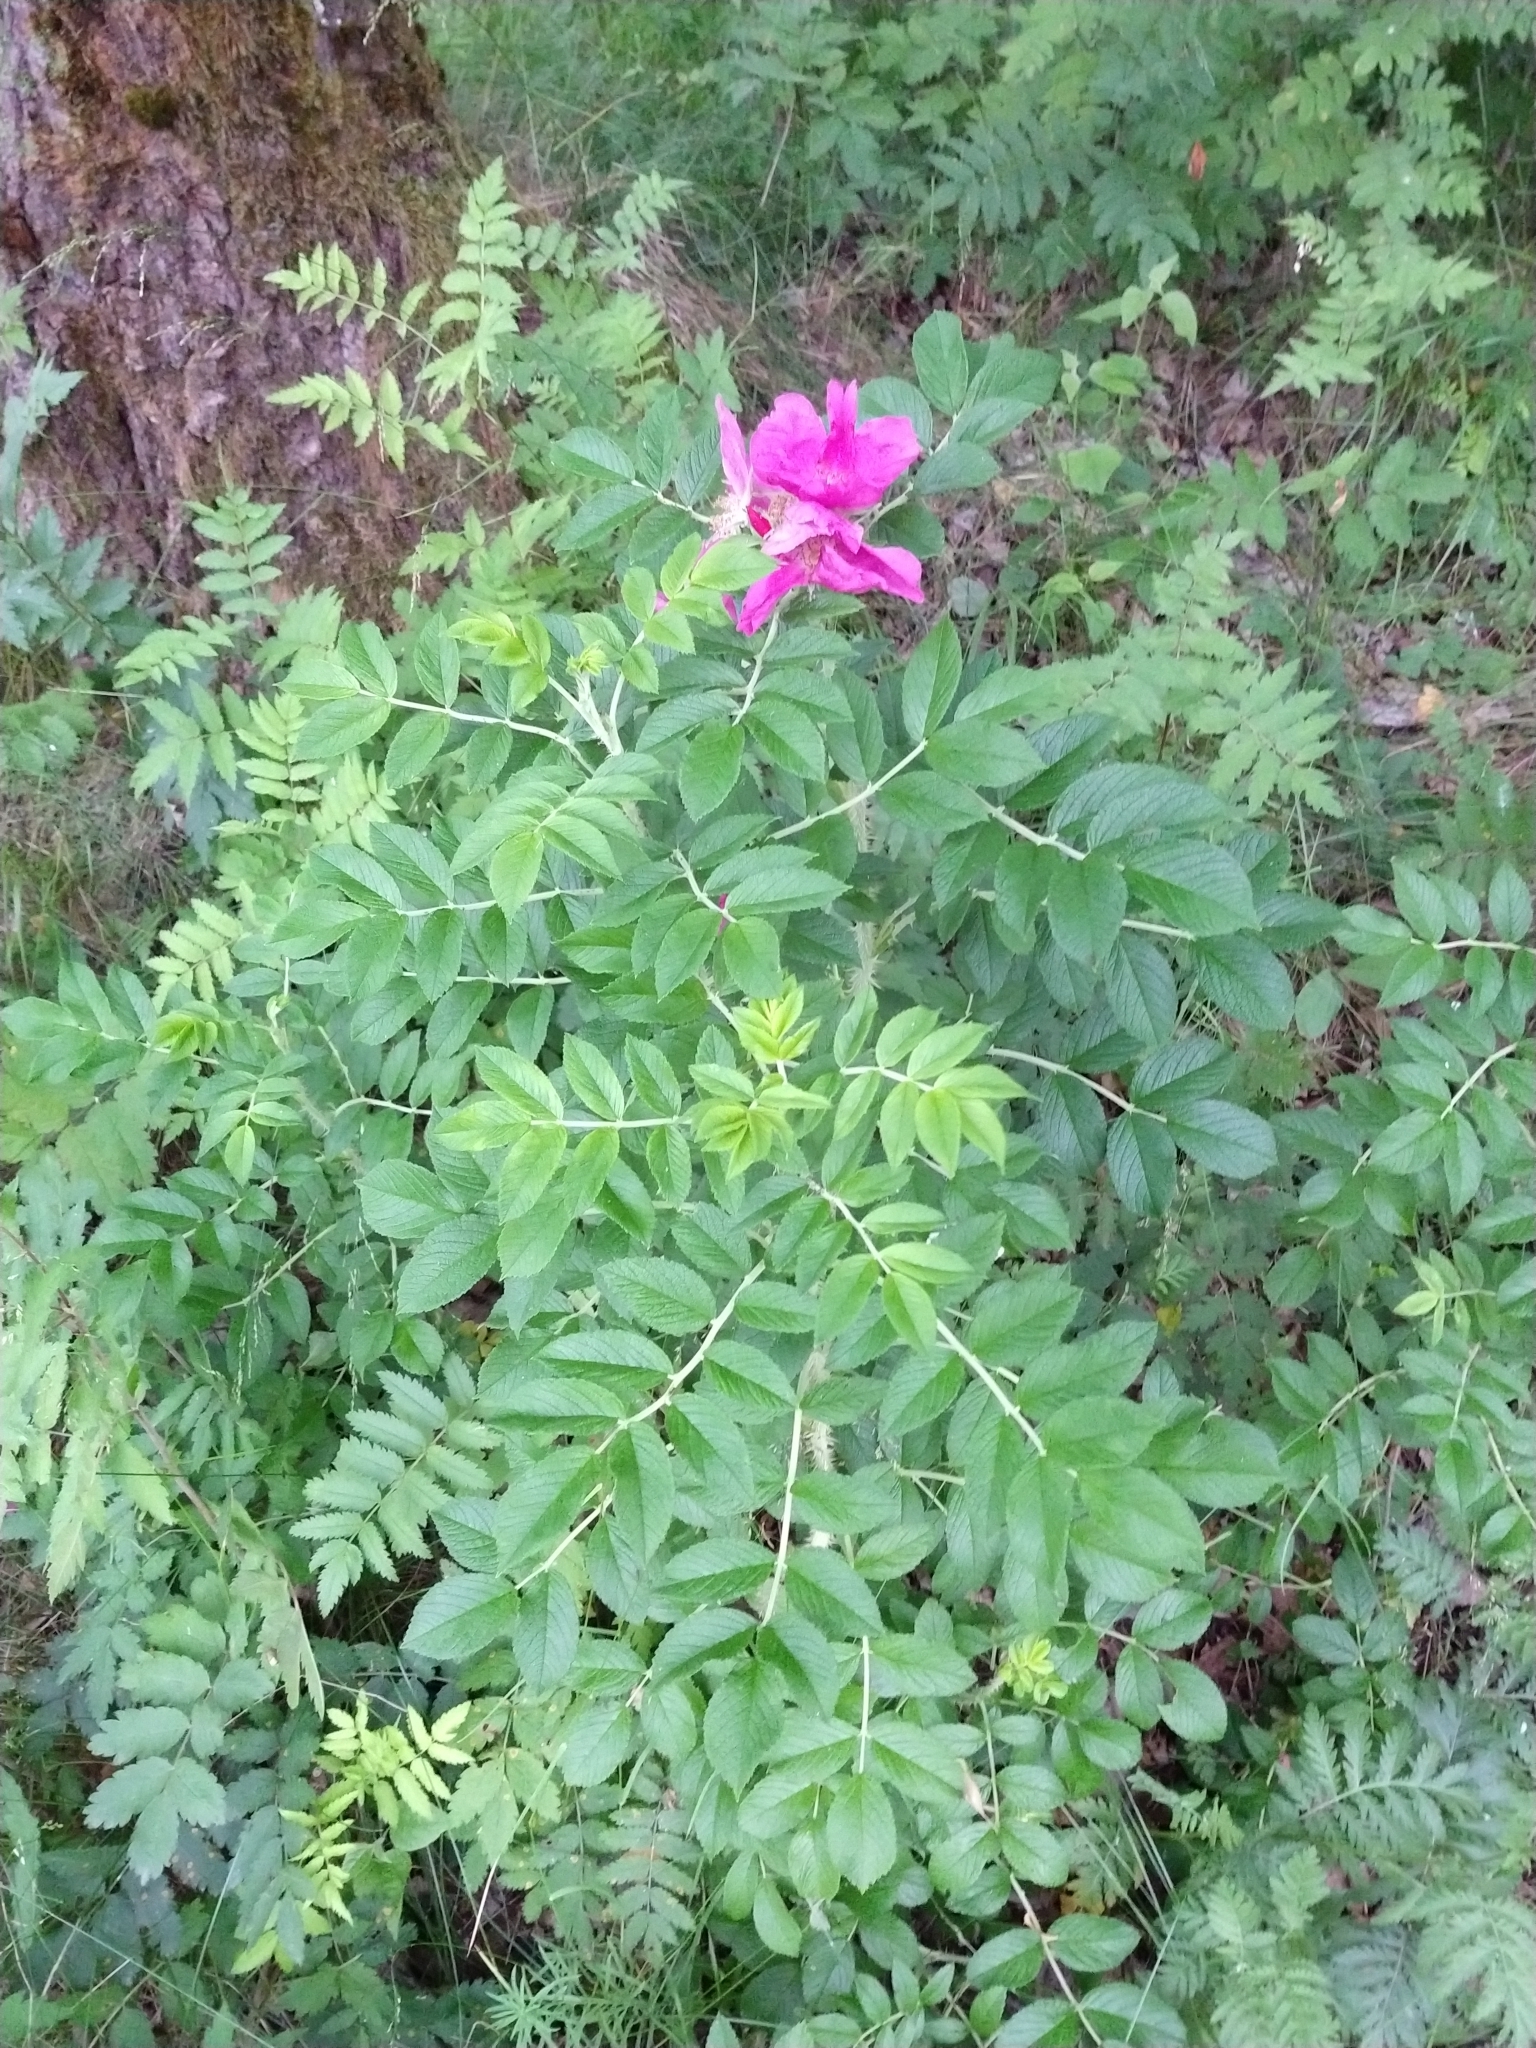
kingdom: Plantae
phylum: Tracheophyta
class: Magnoliopsida
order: Rosales
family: Rosaceae
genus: Rosa
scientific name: Rosa rugosa
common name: Japanese rose
